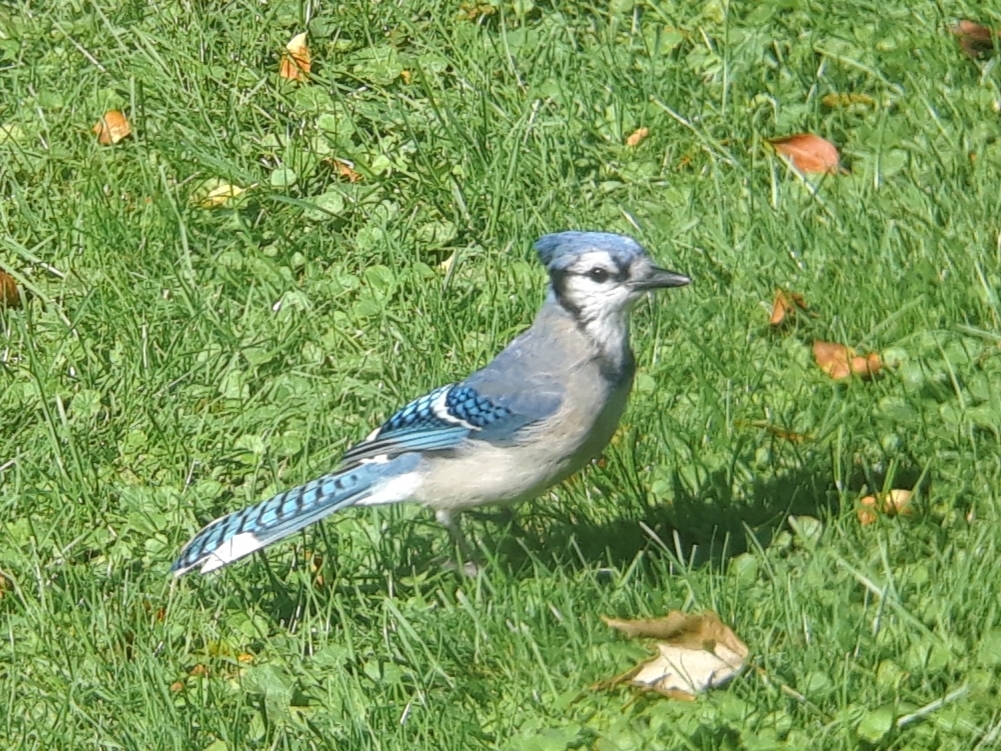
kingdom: Animalia
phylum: Chordata
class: Aves
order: Passeriformes
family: Corvidae
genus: Cyanocitta
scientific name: Cyanocitta cristata
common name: Blue jay
